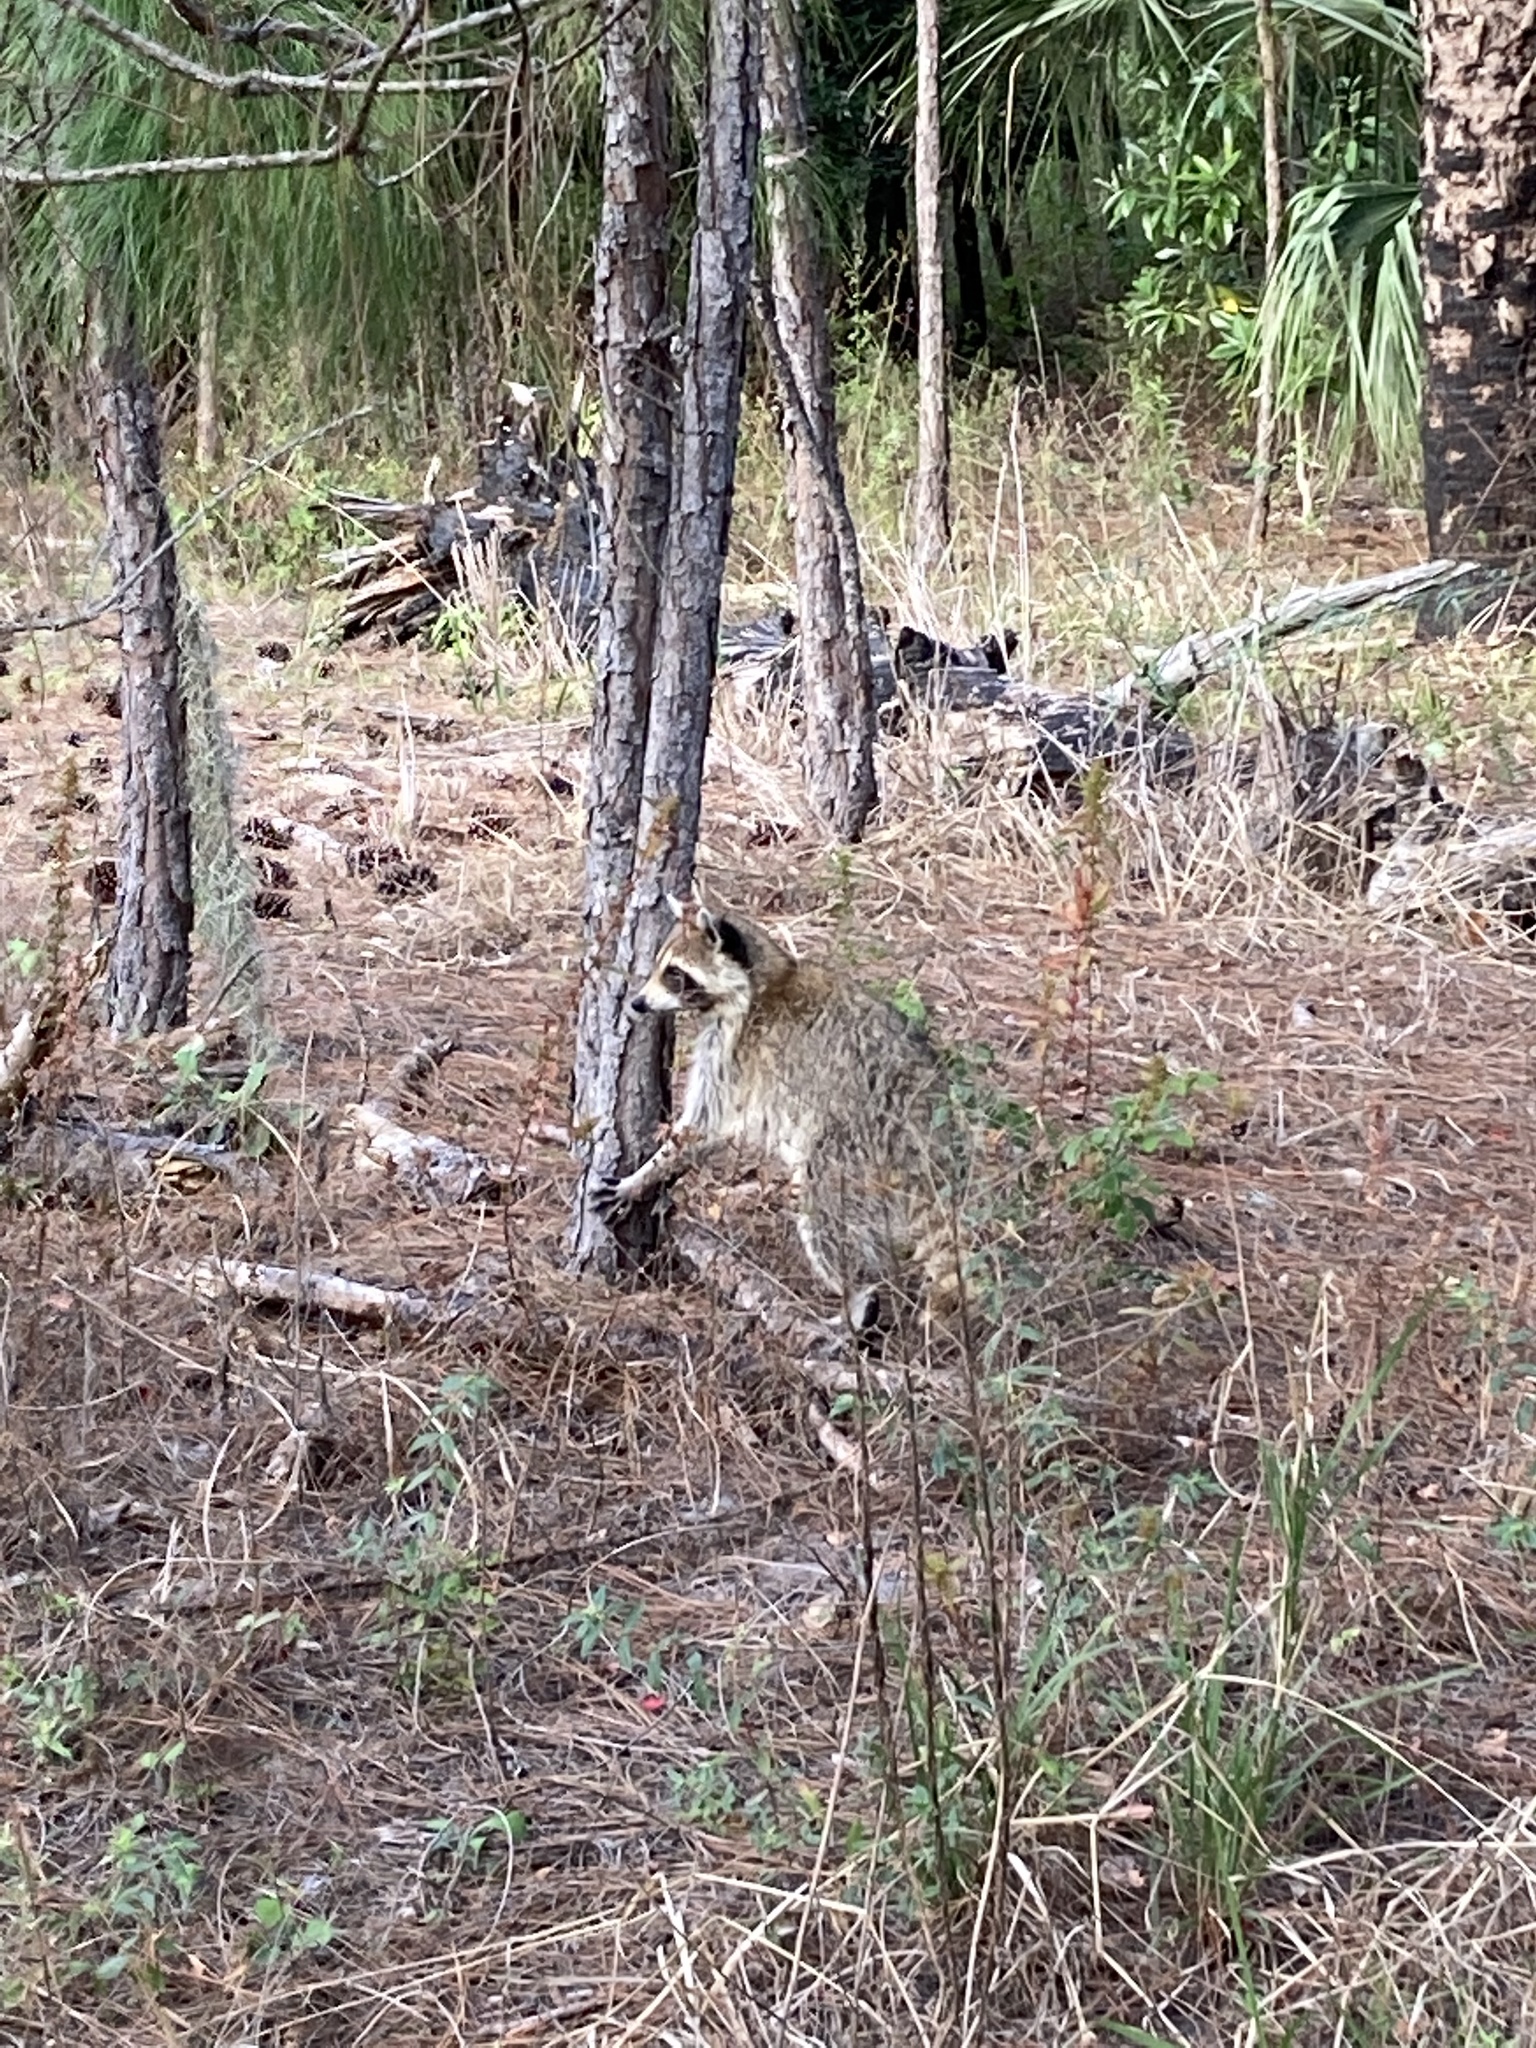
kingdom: Animalia
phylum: Chordata
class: Mammalia
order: Carnivora
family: Procyonidae
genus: Procyon
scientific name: Procyon lotor
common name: Raccoon
